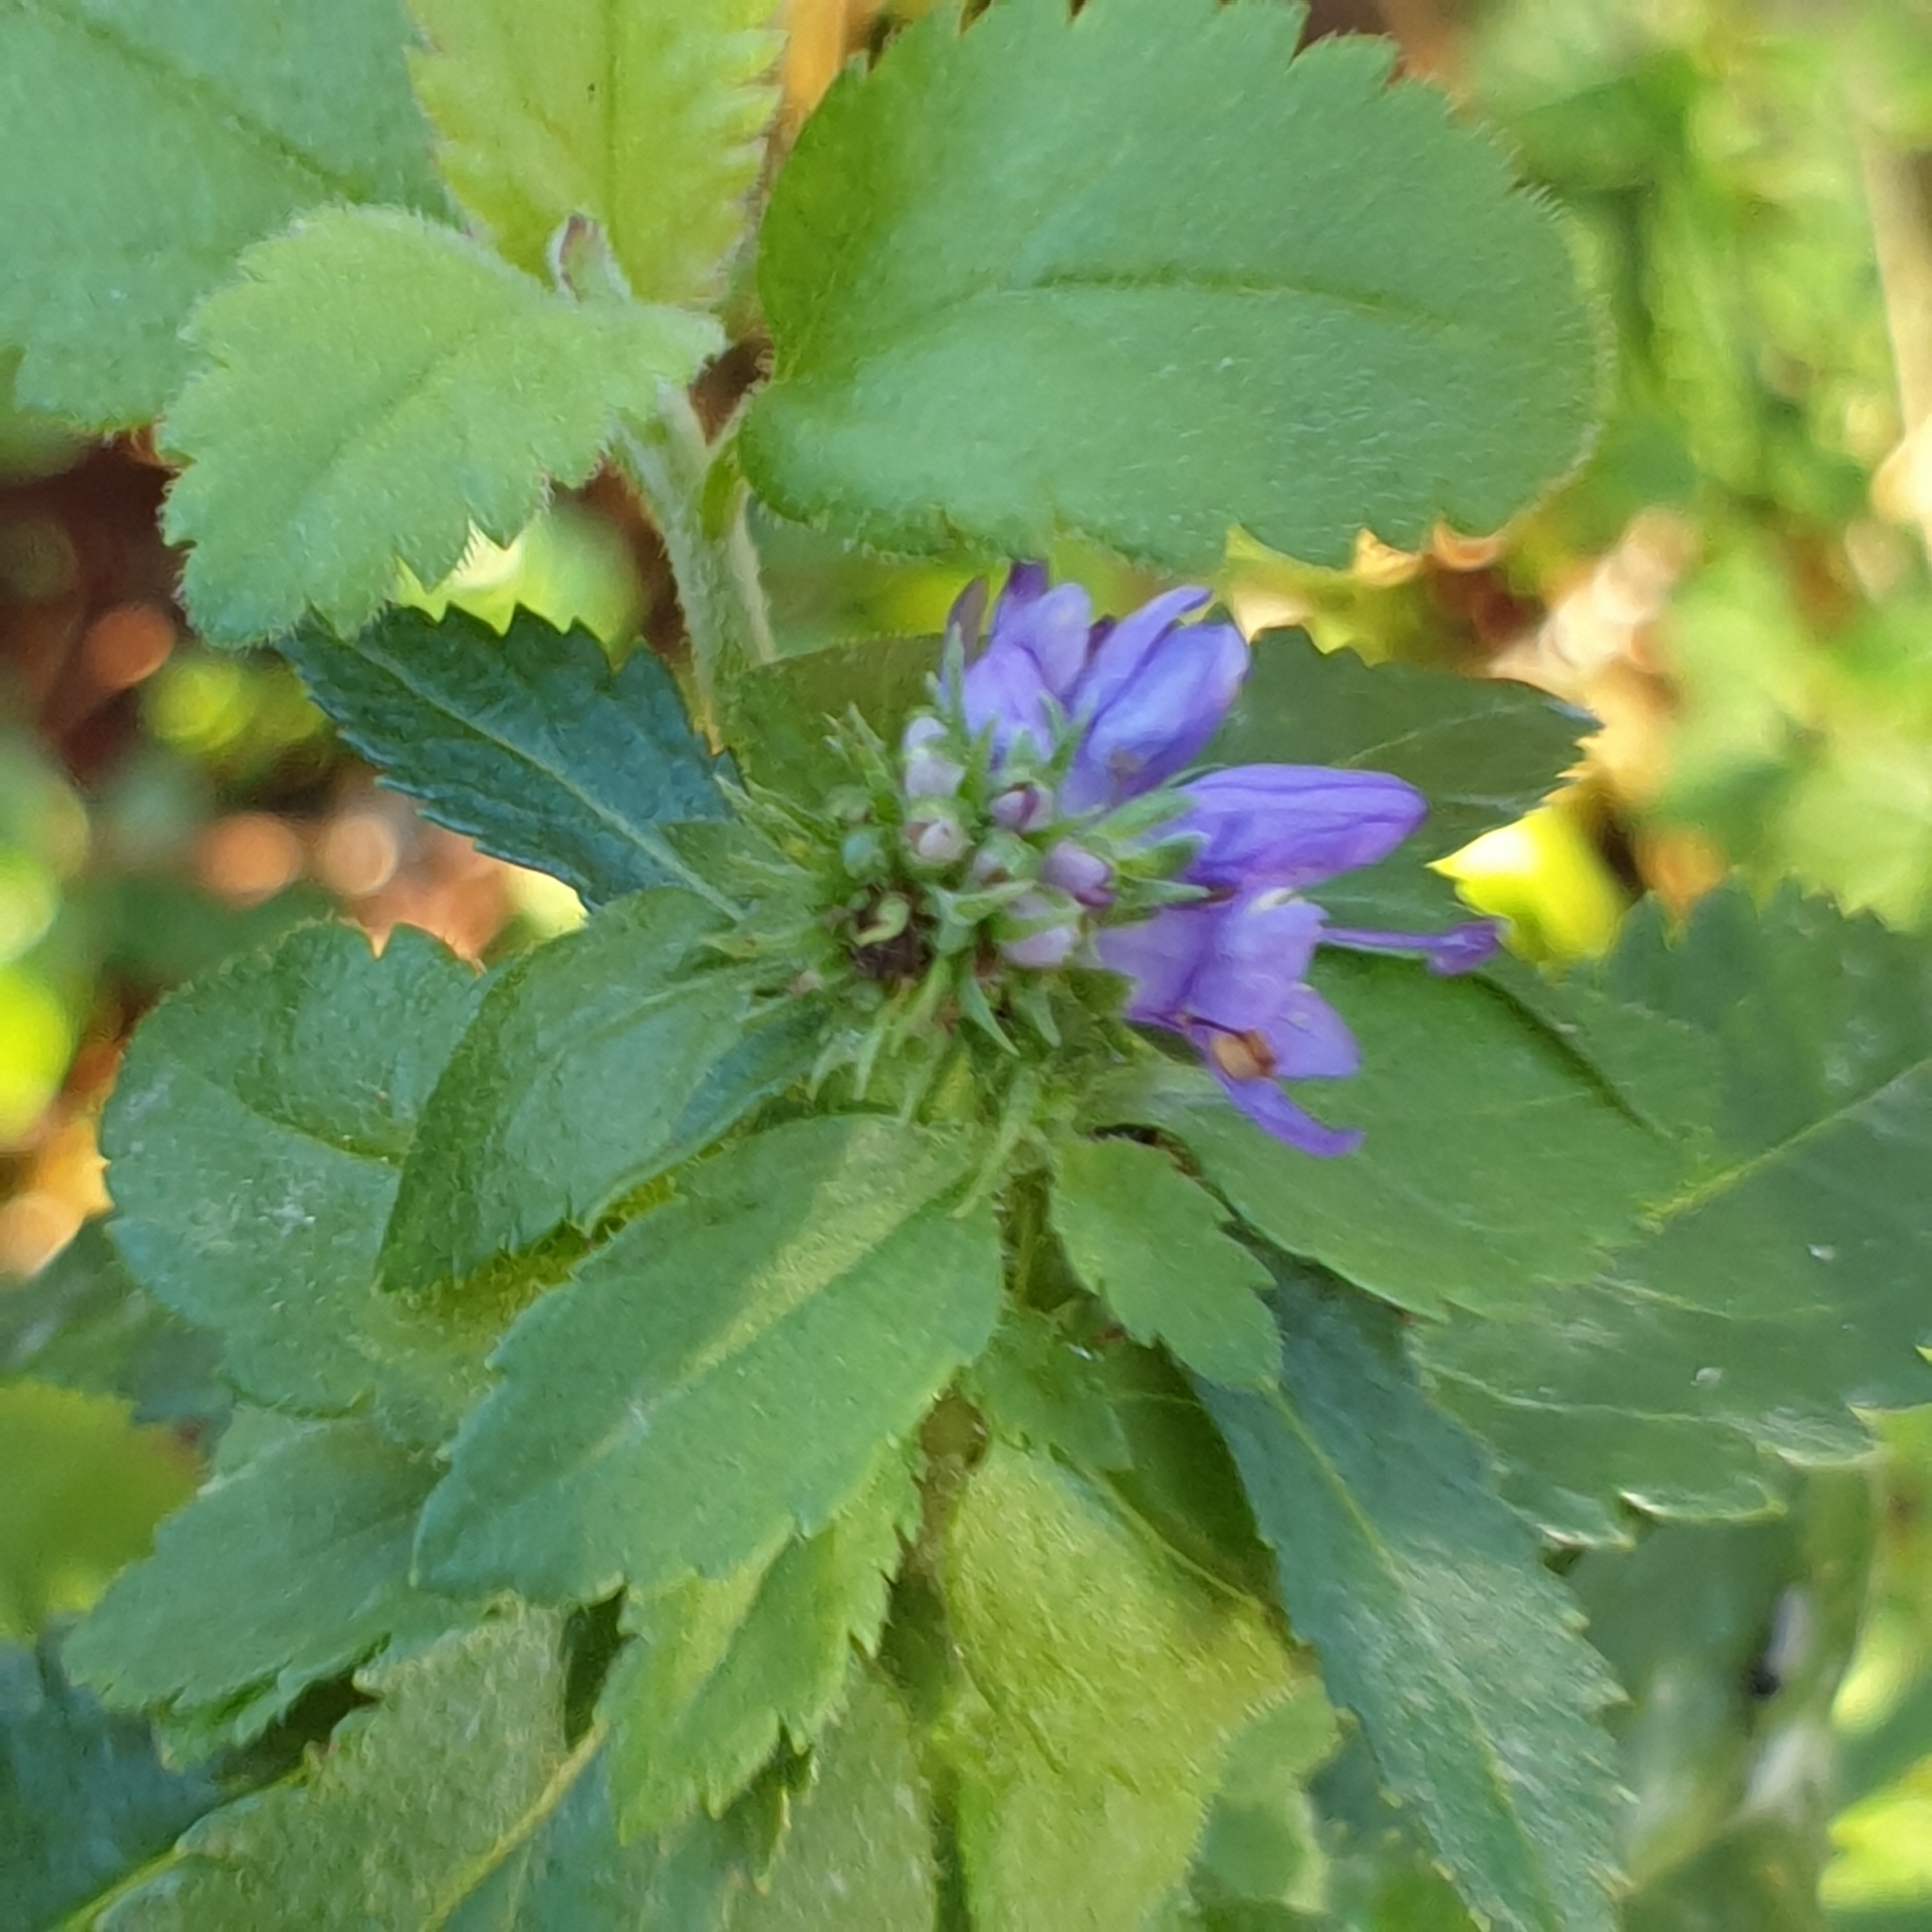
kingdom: Plantae
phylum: Tracheophyta
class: Magnoliopsida
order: Lamiales
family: Plantaginaceae
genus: Veronica
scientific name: Veronica longifolia
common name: Garden speedwell
